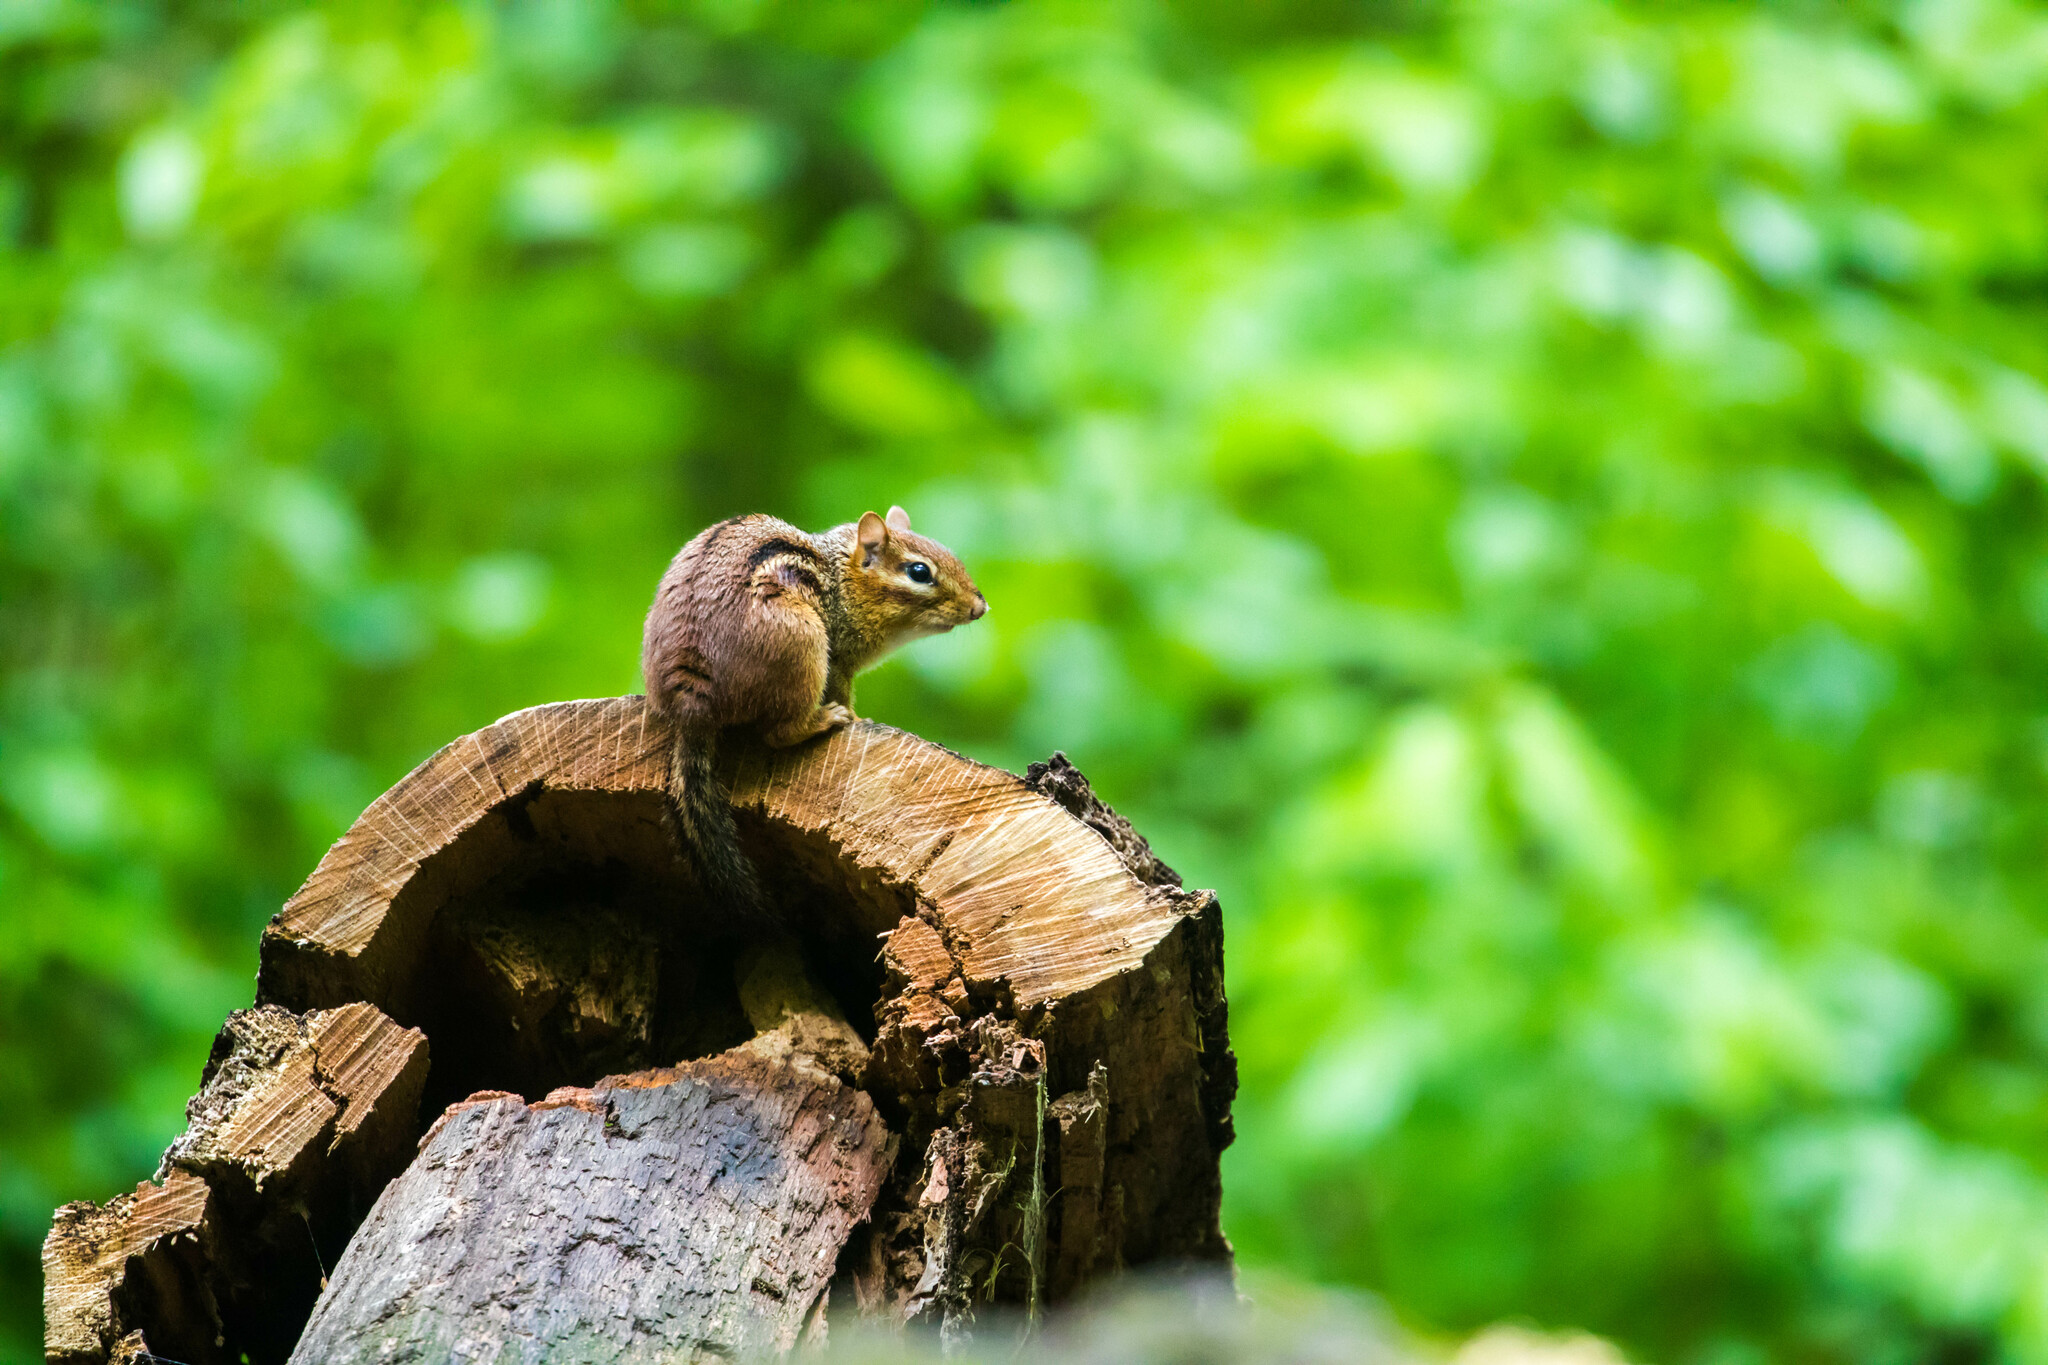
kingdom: Animalia
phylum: Chordata
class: Mammalia
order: Rodentia
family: Sciuridae
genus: Tamias
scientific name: Tamias striatus
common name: Eastern chipmunk
